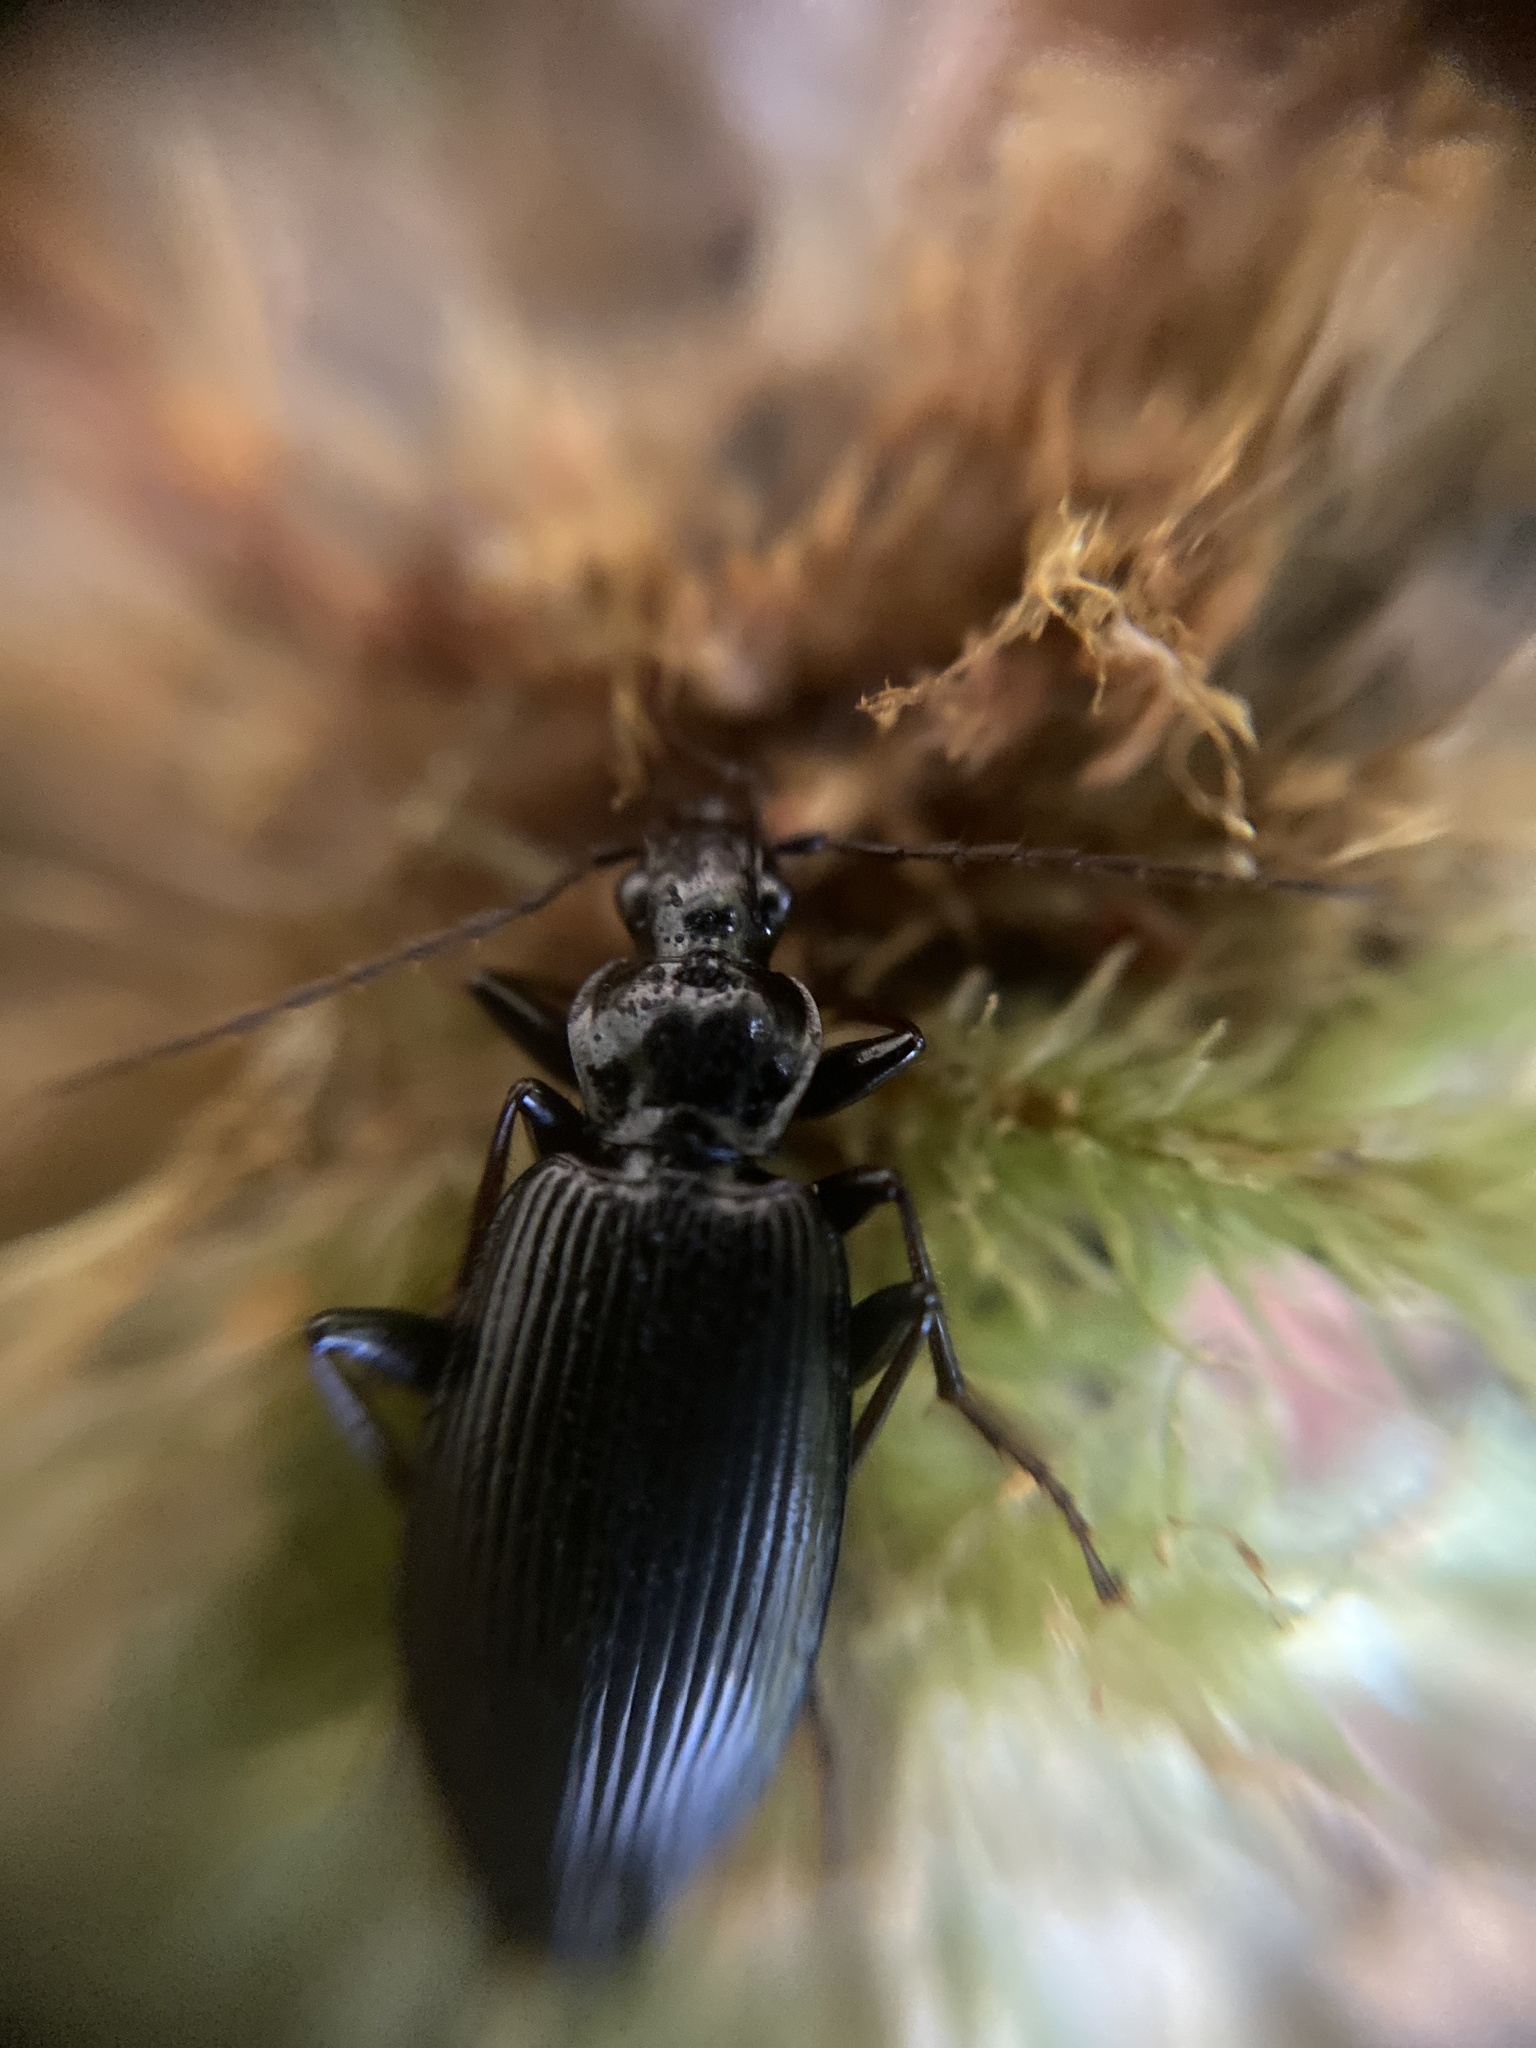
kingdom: Animalia
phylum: Arthropoda
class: Insecta
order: Coleoptera
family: Carabidae
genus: Platynus
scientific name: Platynus assimilis
